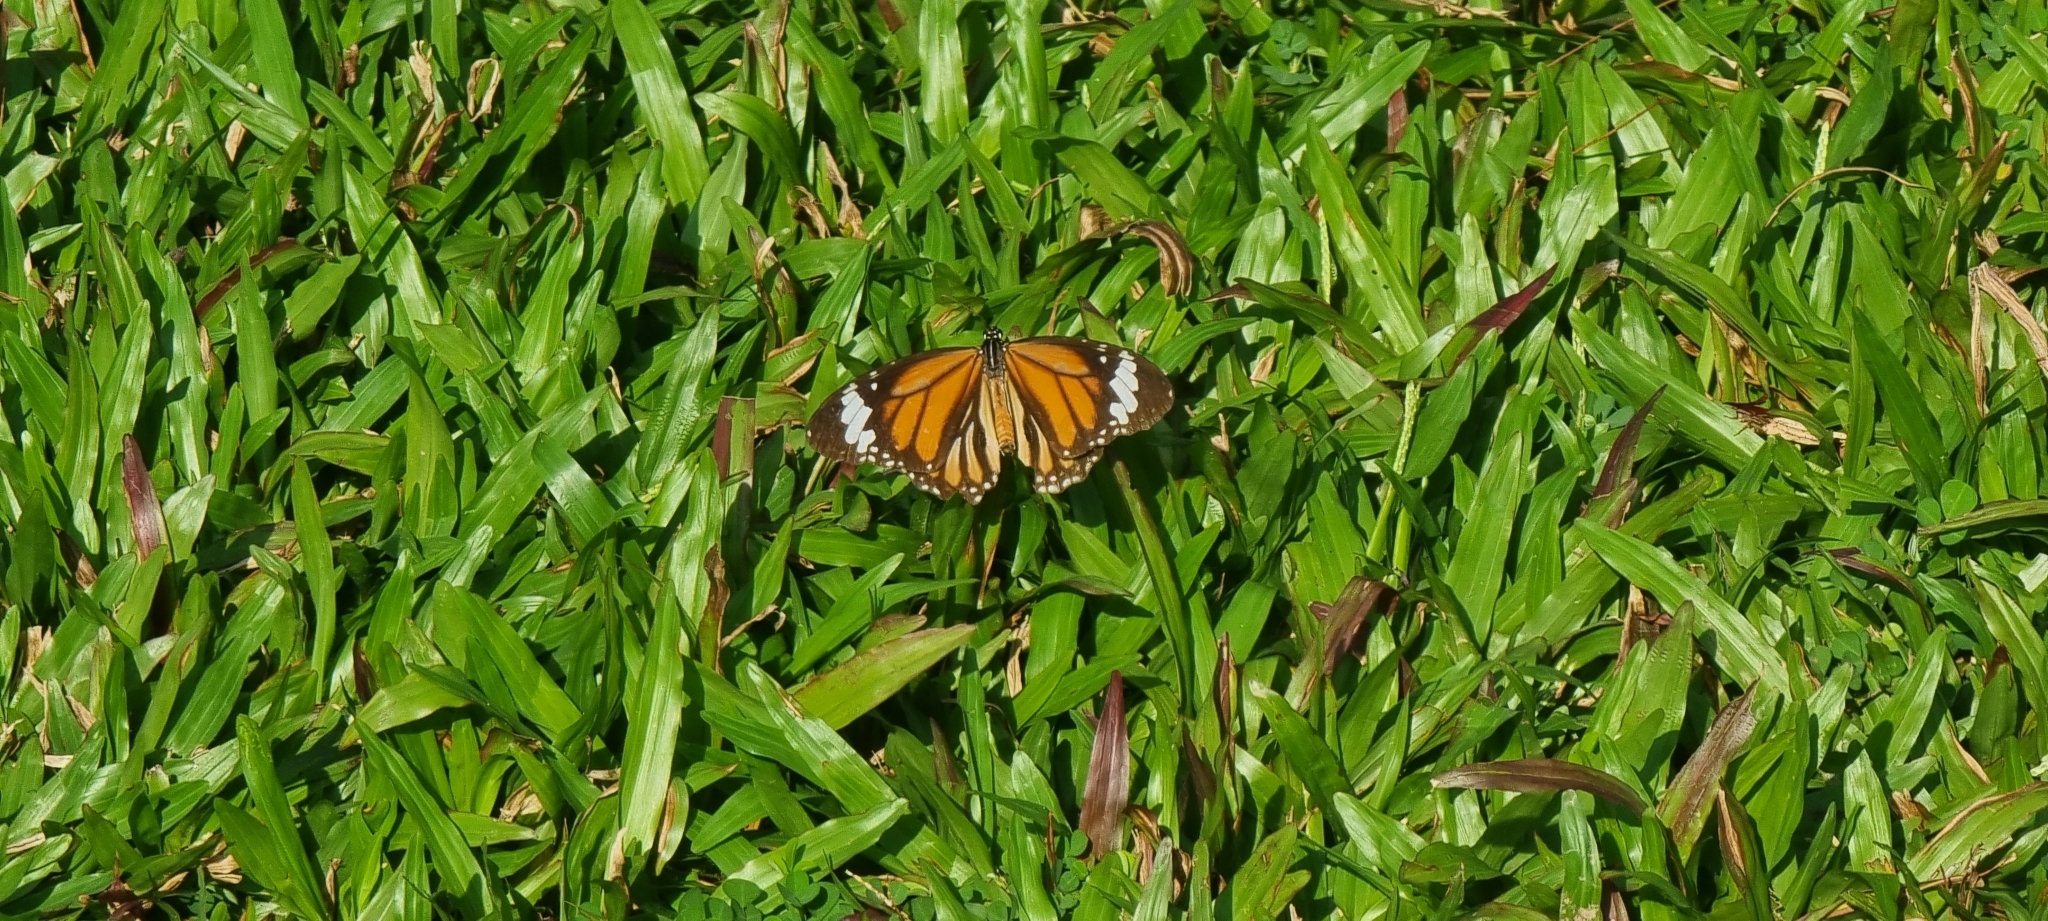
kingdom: Animalia
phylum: Arthropoda
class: Insecta
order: Lepidoptera
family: Nymphalidae
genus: Danaus
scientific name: Danaus genutia
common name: Common tiger butterfly
